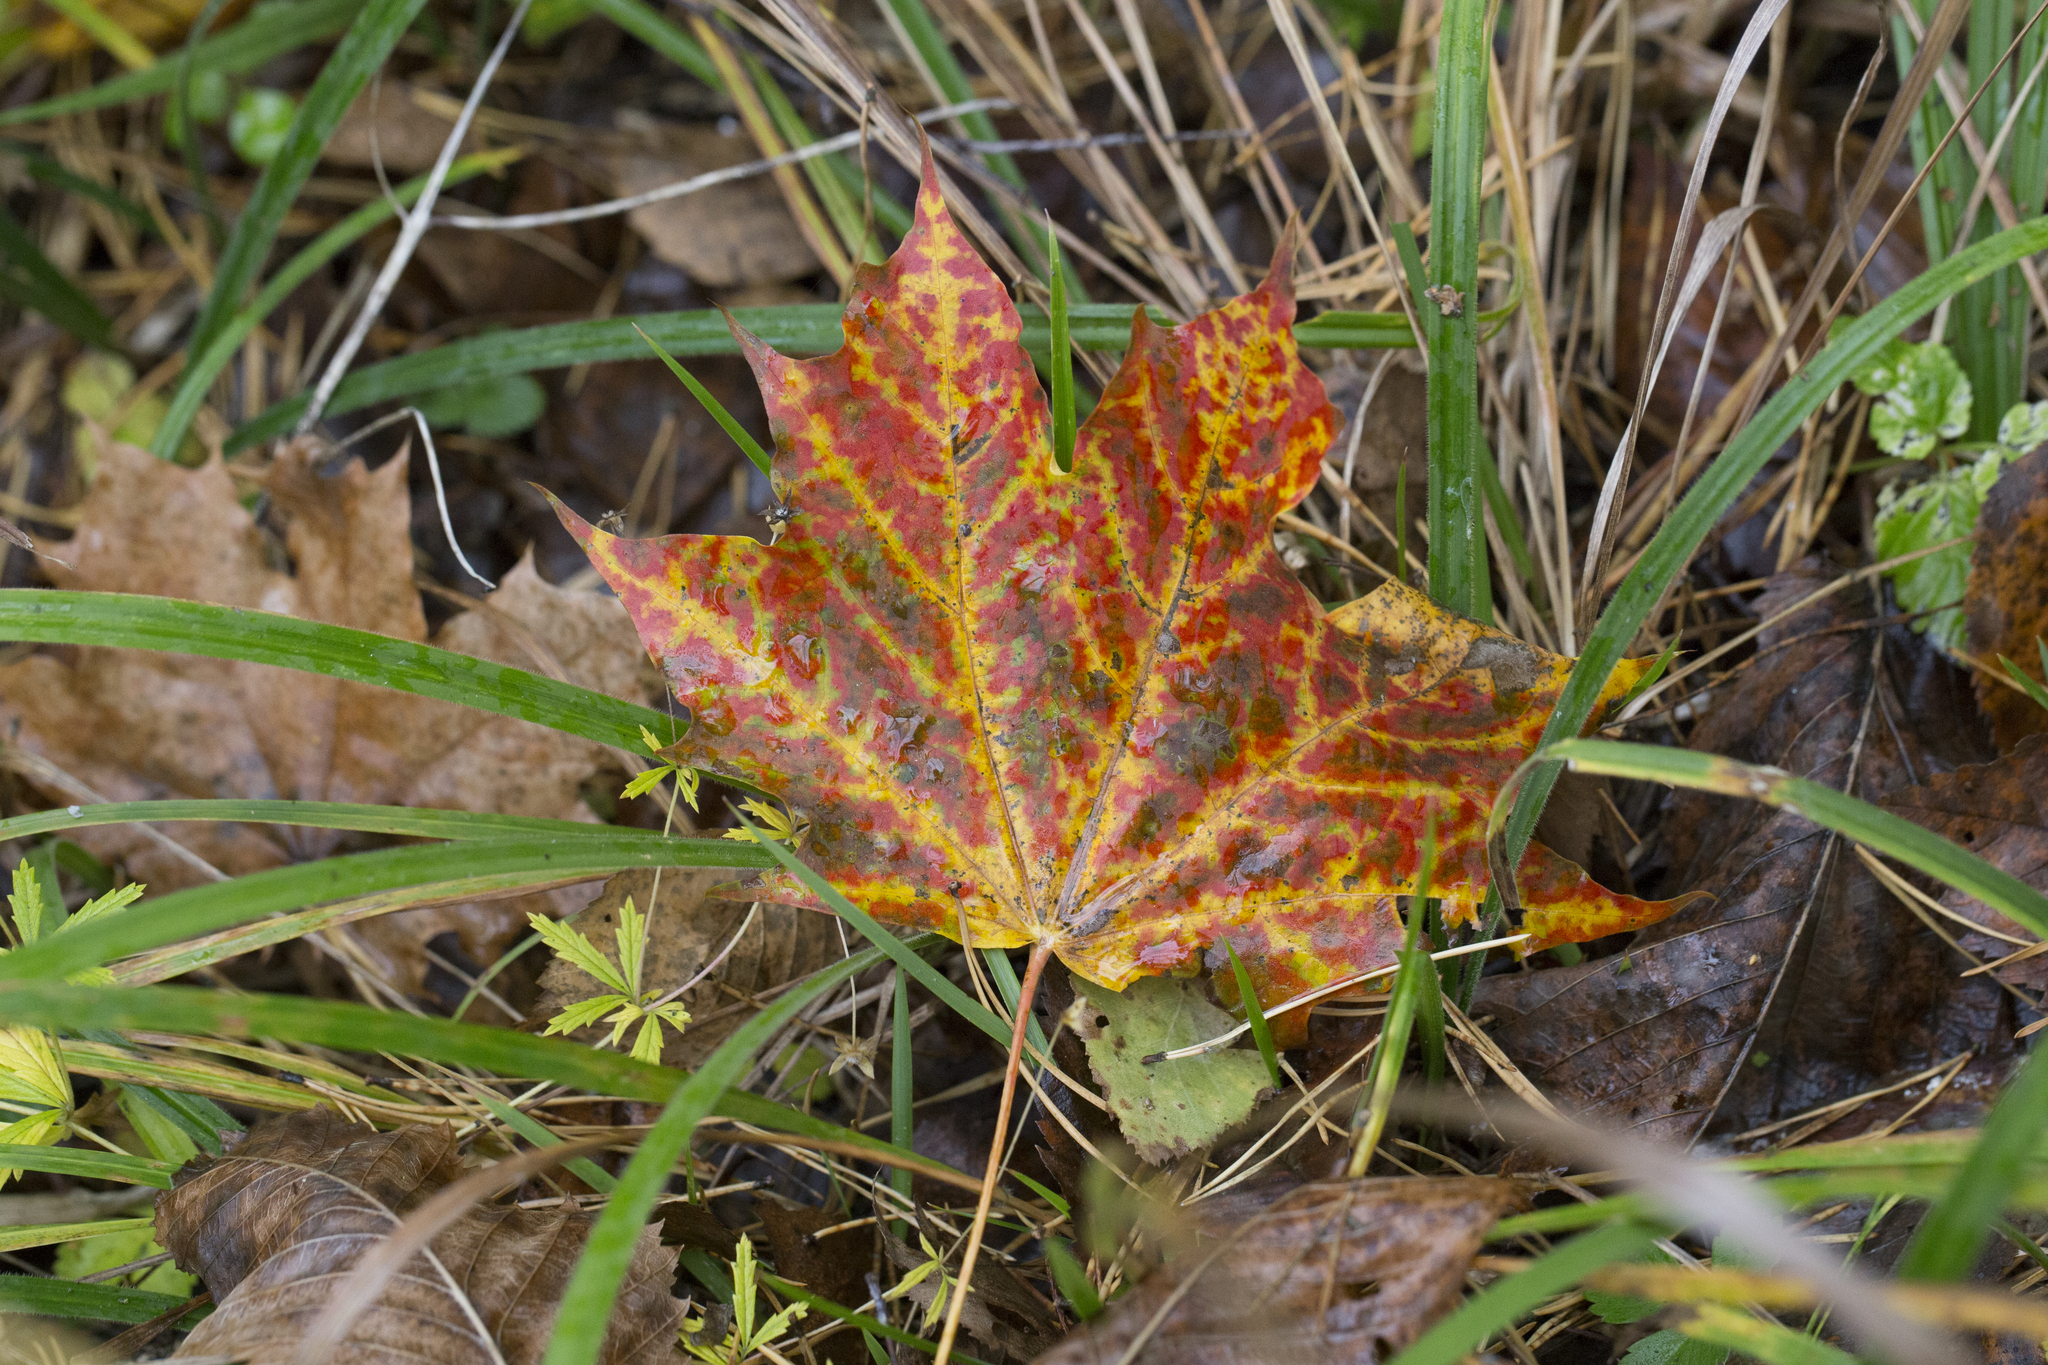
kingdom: Plantae
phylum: Tracheophyta
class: Magnoliopsida
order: Sapindales
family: Sapindaceae
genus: Acer
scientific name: Acer platanoides
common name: Norway maple
